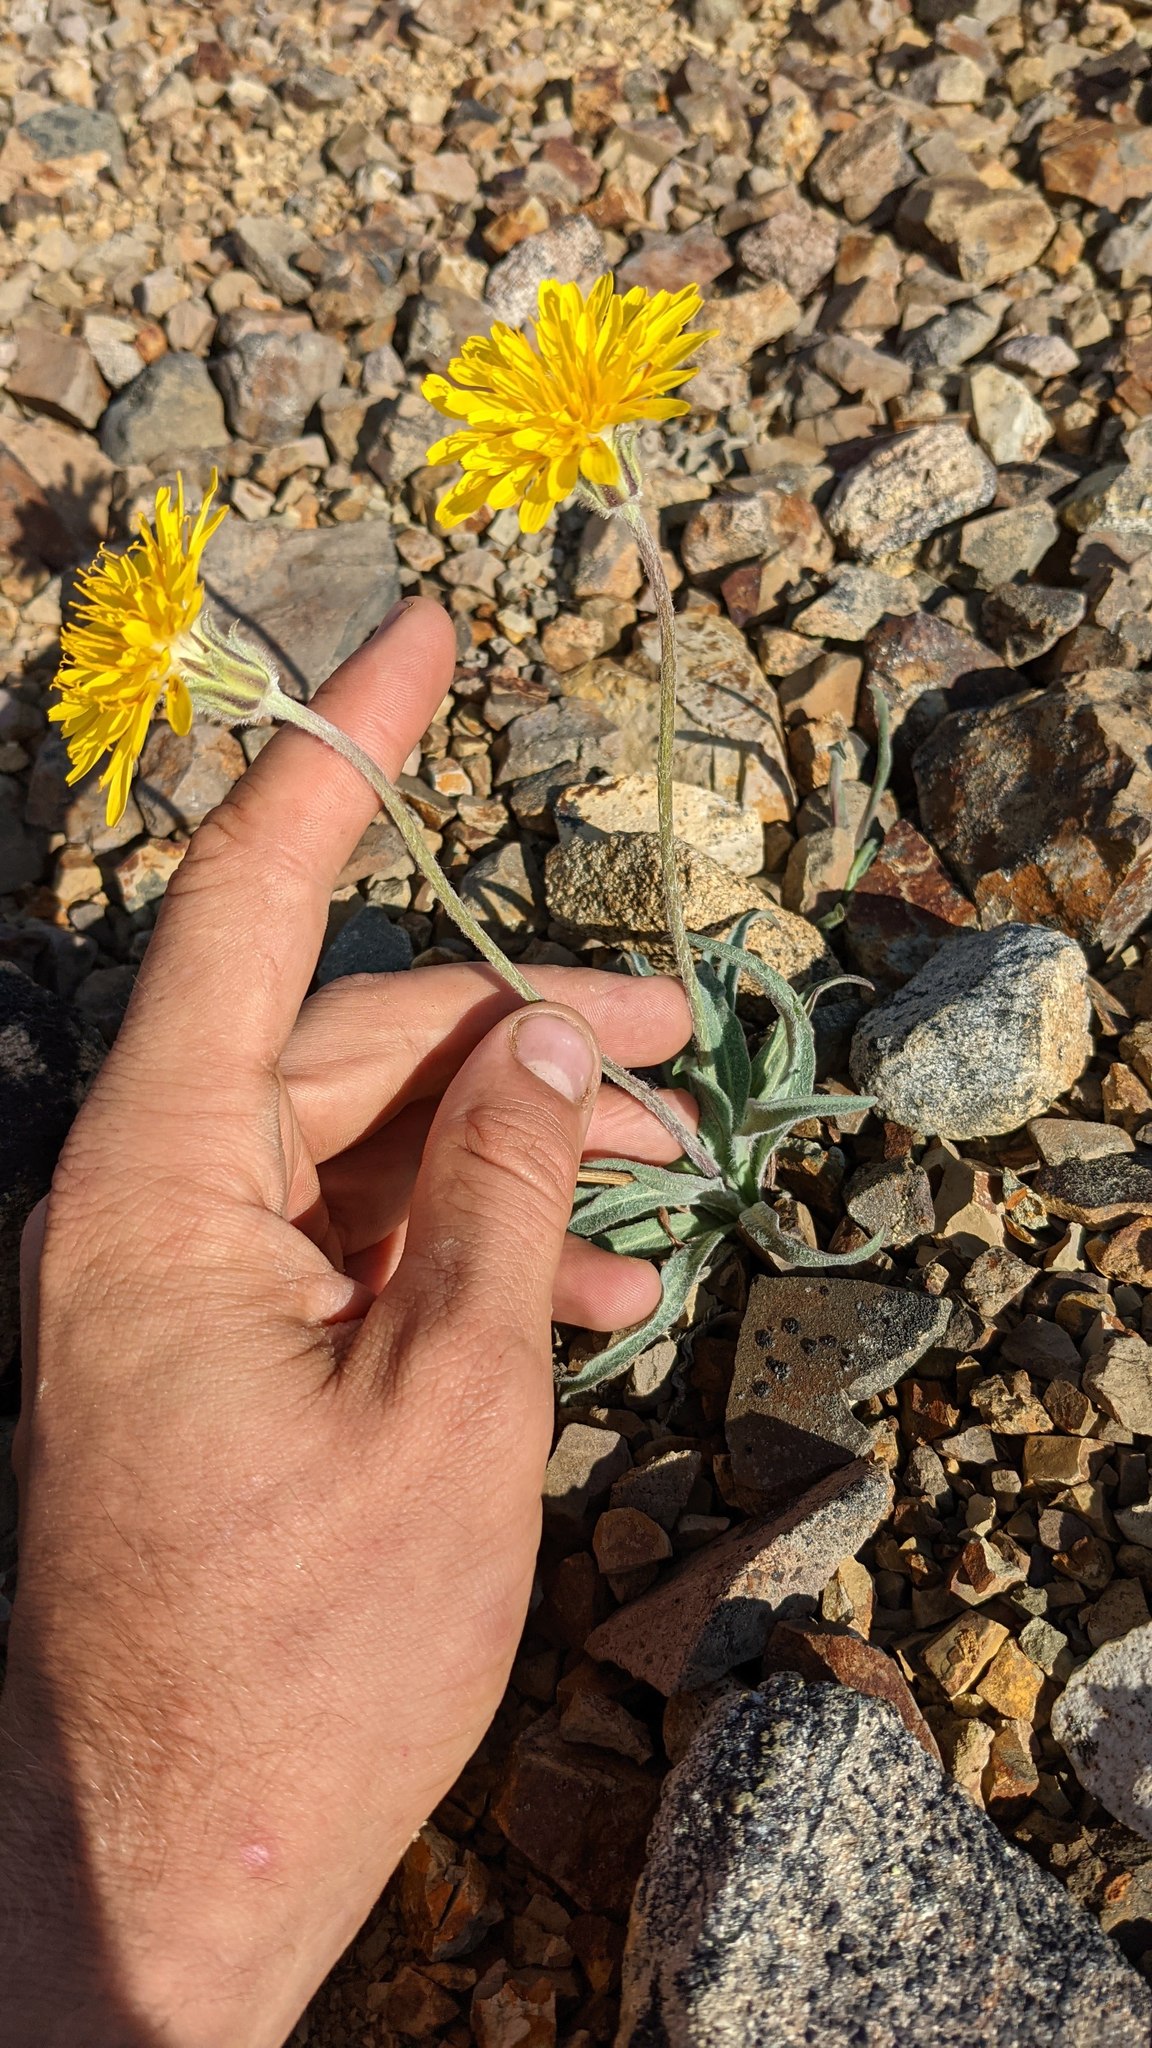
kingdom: Plantae
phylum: Tracheophyta
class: Magnoliopsida
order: Asterales
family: Asteraceae
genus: Agoseris
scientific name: Agoseris glauca
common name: Prairie agoseris
